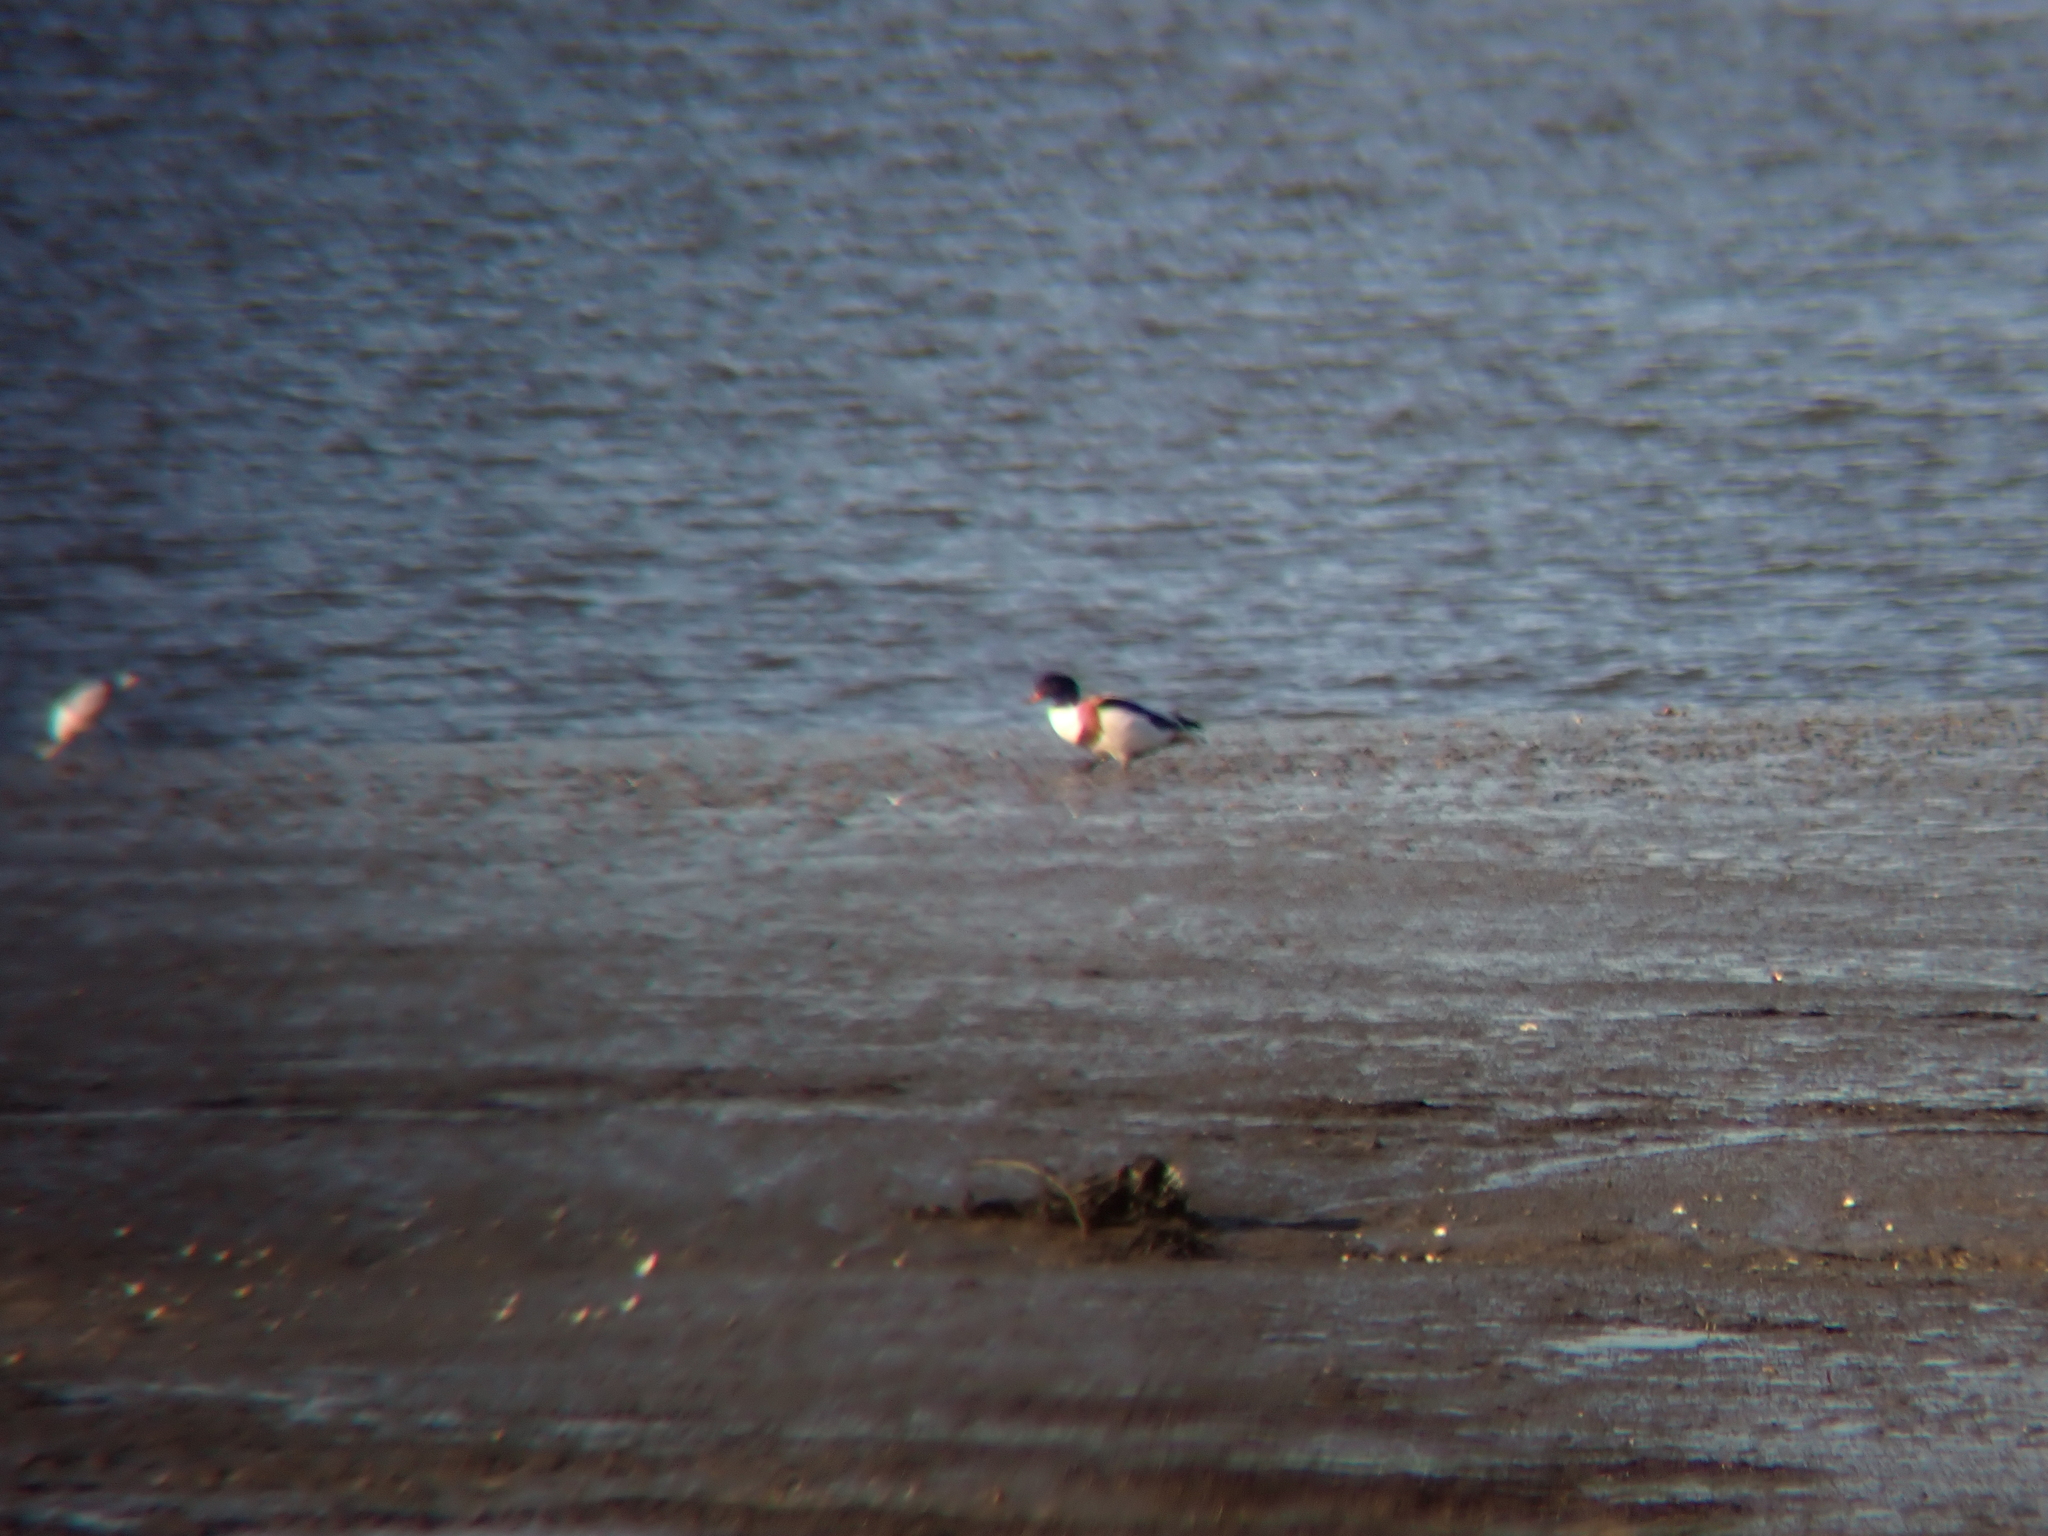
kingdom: Animalia
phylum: Chordata
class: Aves
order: Anseriformes
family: Anatidae
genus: Tadorna
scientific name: Tadorna tadorna
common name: Common shelduck
